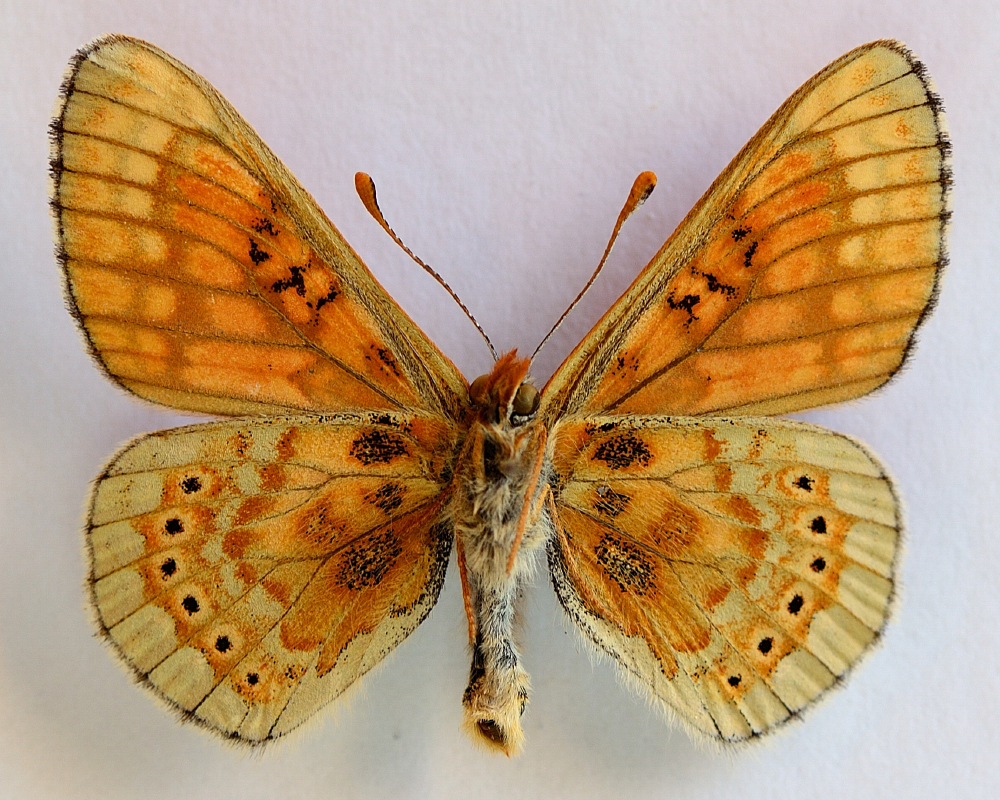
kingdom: Animalia
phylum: Arthropoda
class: Insecta
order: Lepidoptera
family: Nymphalidae
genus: Euphydryas
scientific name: Euphydryas aurinia
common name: Marsh fritillary
